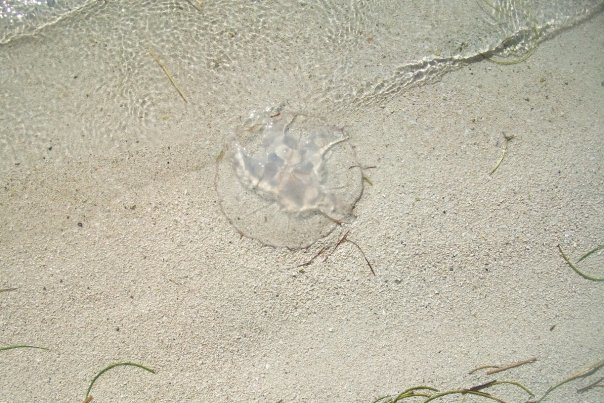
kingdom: Animalia
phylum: Cnidaria
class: Scyphozoa
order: Semaeostomeae
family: Ulmaridae
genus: Aurelia
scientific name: Aurelia marginalis
